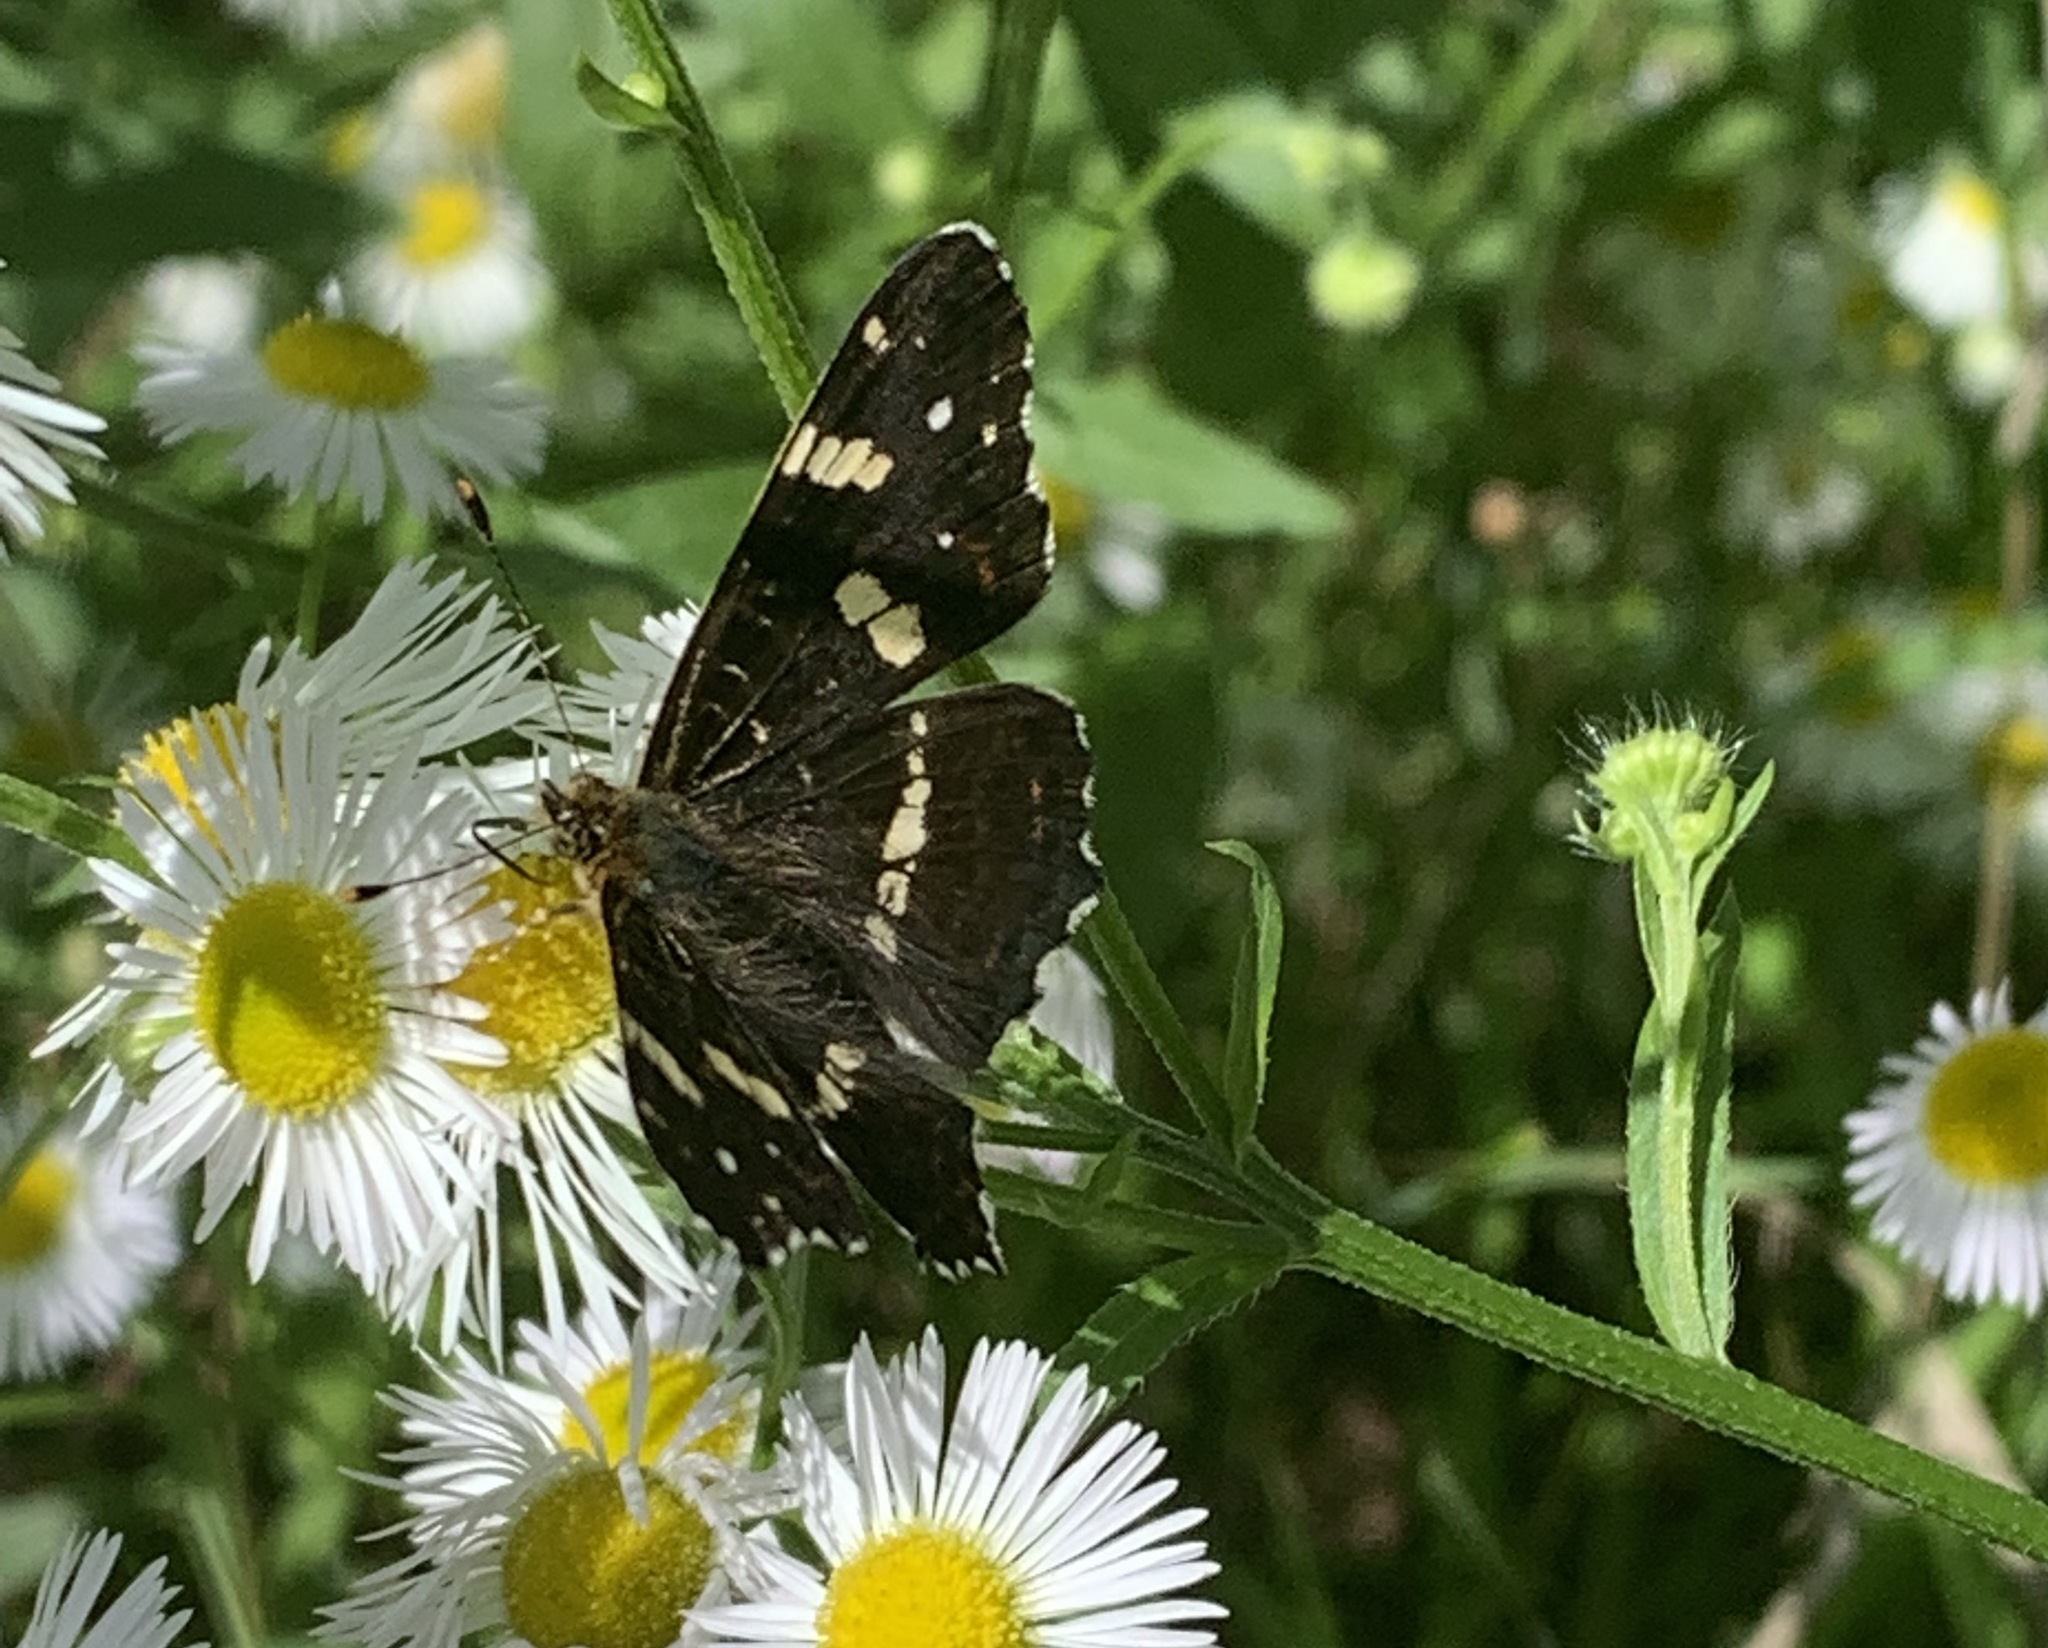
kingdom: Animalia
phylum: Arthropoda
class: Insecta
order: Lepidoptera
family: Nymphalidae
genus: Araschnia
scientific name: Araschnia levana
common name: Map butterfly
